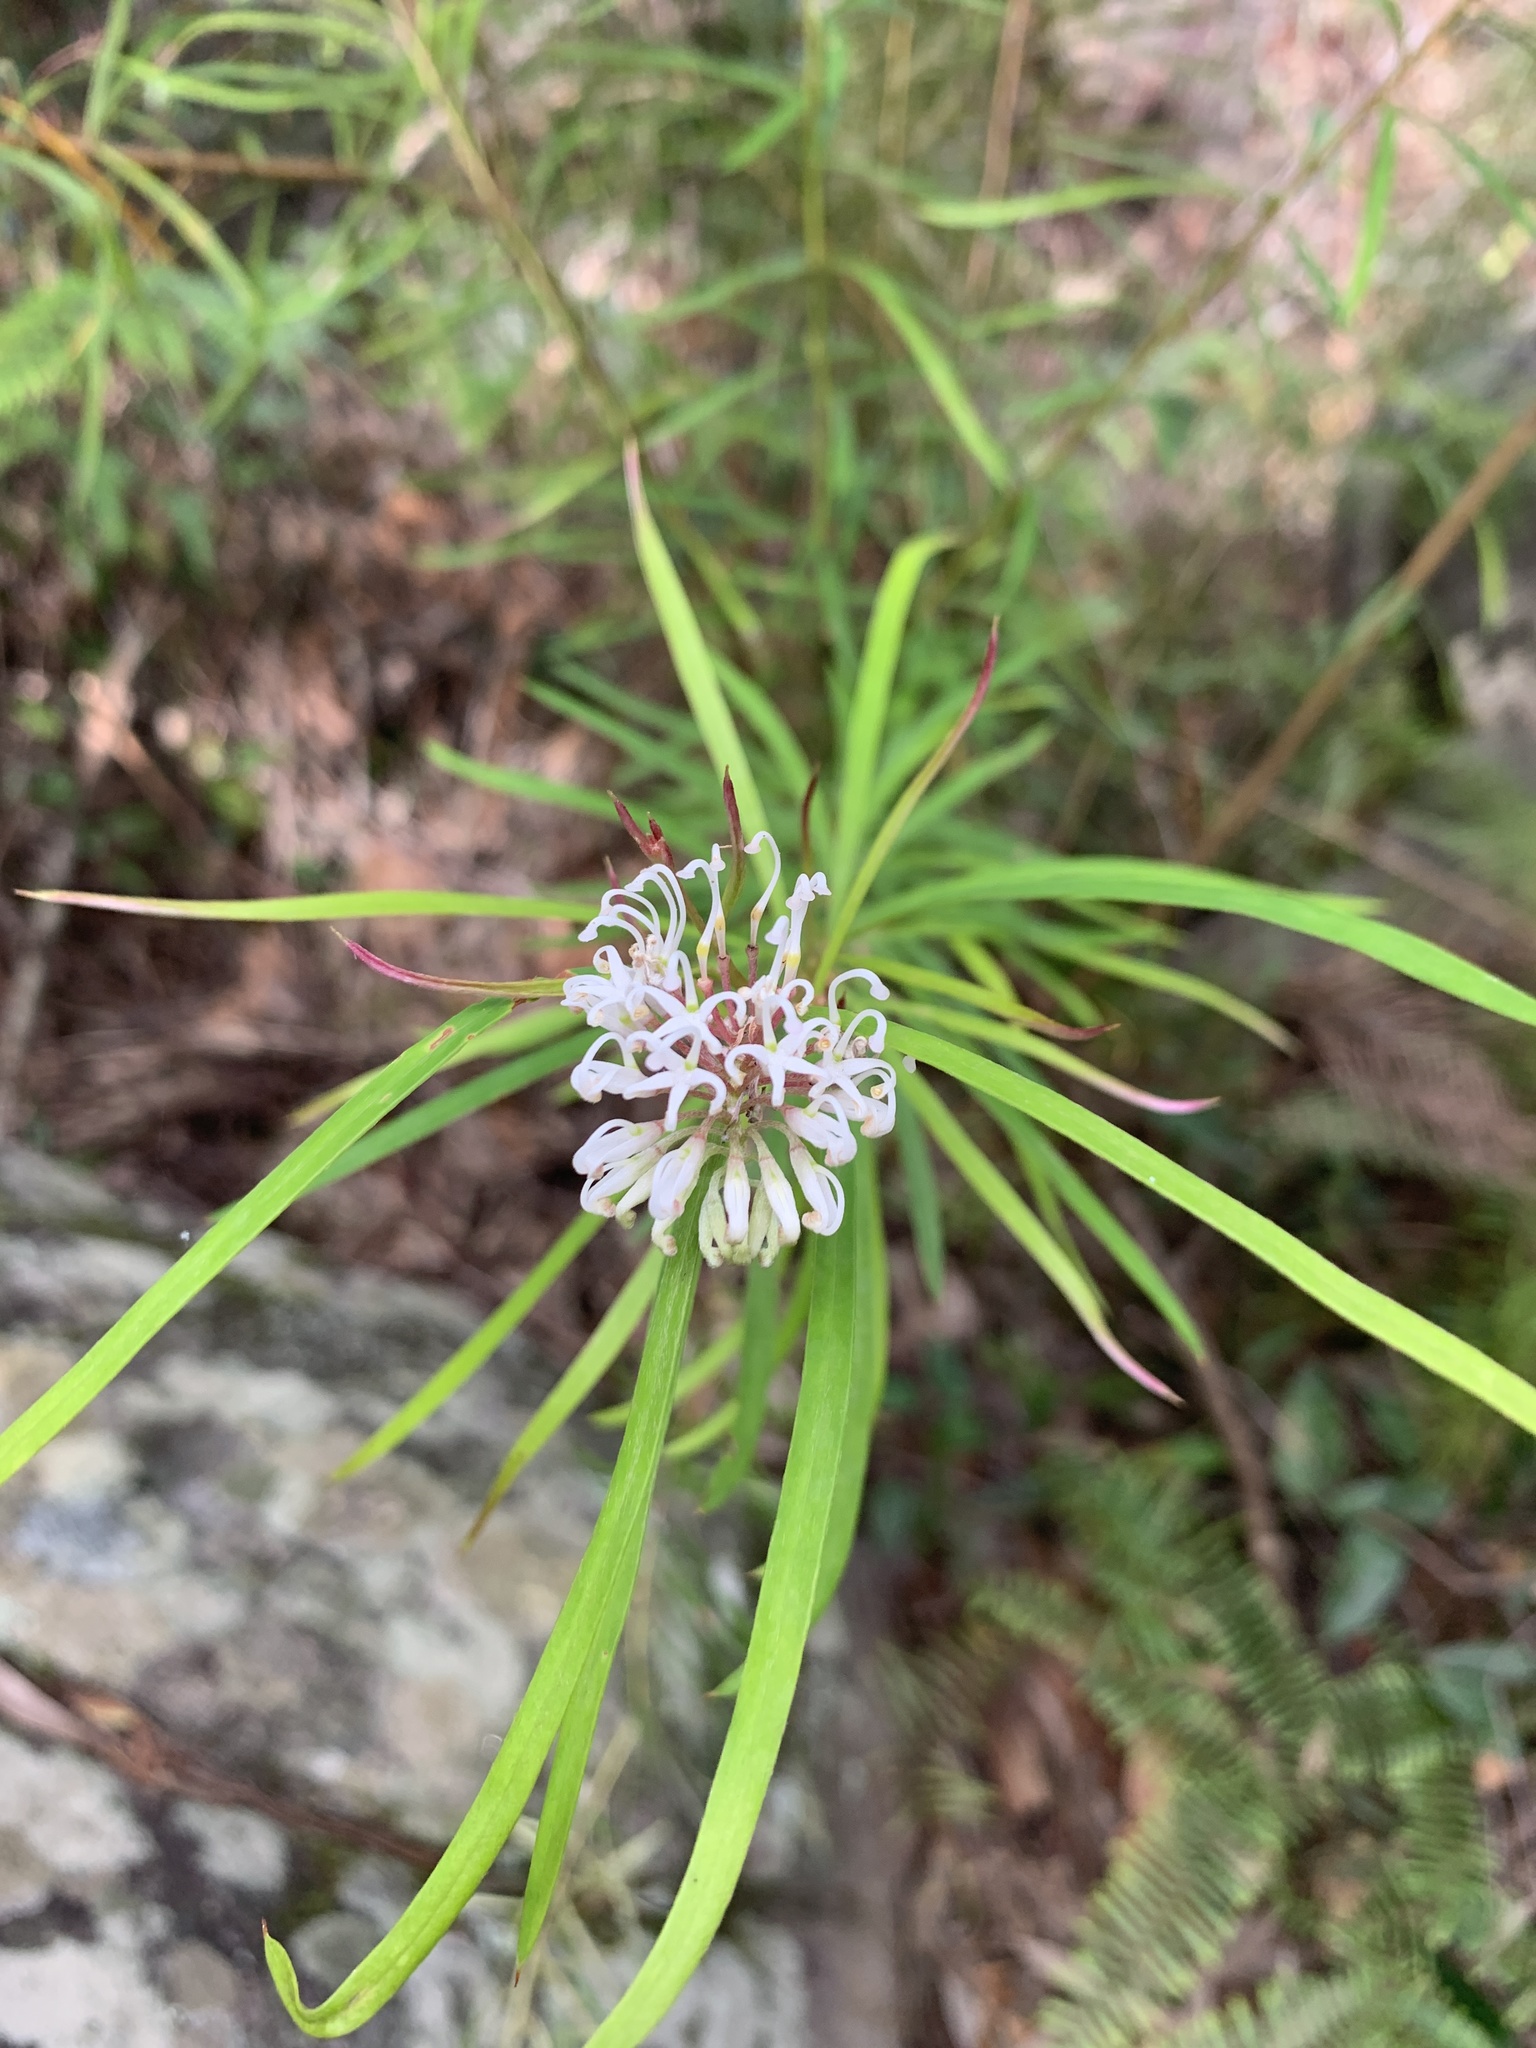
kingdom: Plantae
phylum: Tracheophyta
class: Magnoliopsida
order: Proteales
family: Proteaceae
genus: Grevillea
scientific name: Grevillea linearifolia
